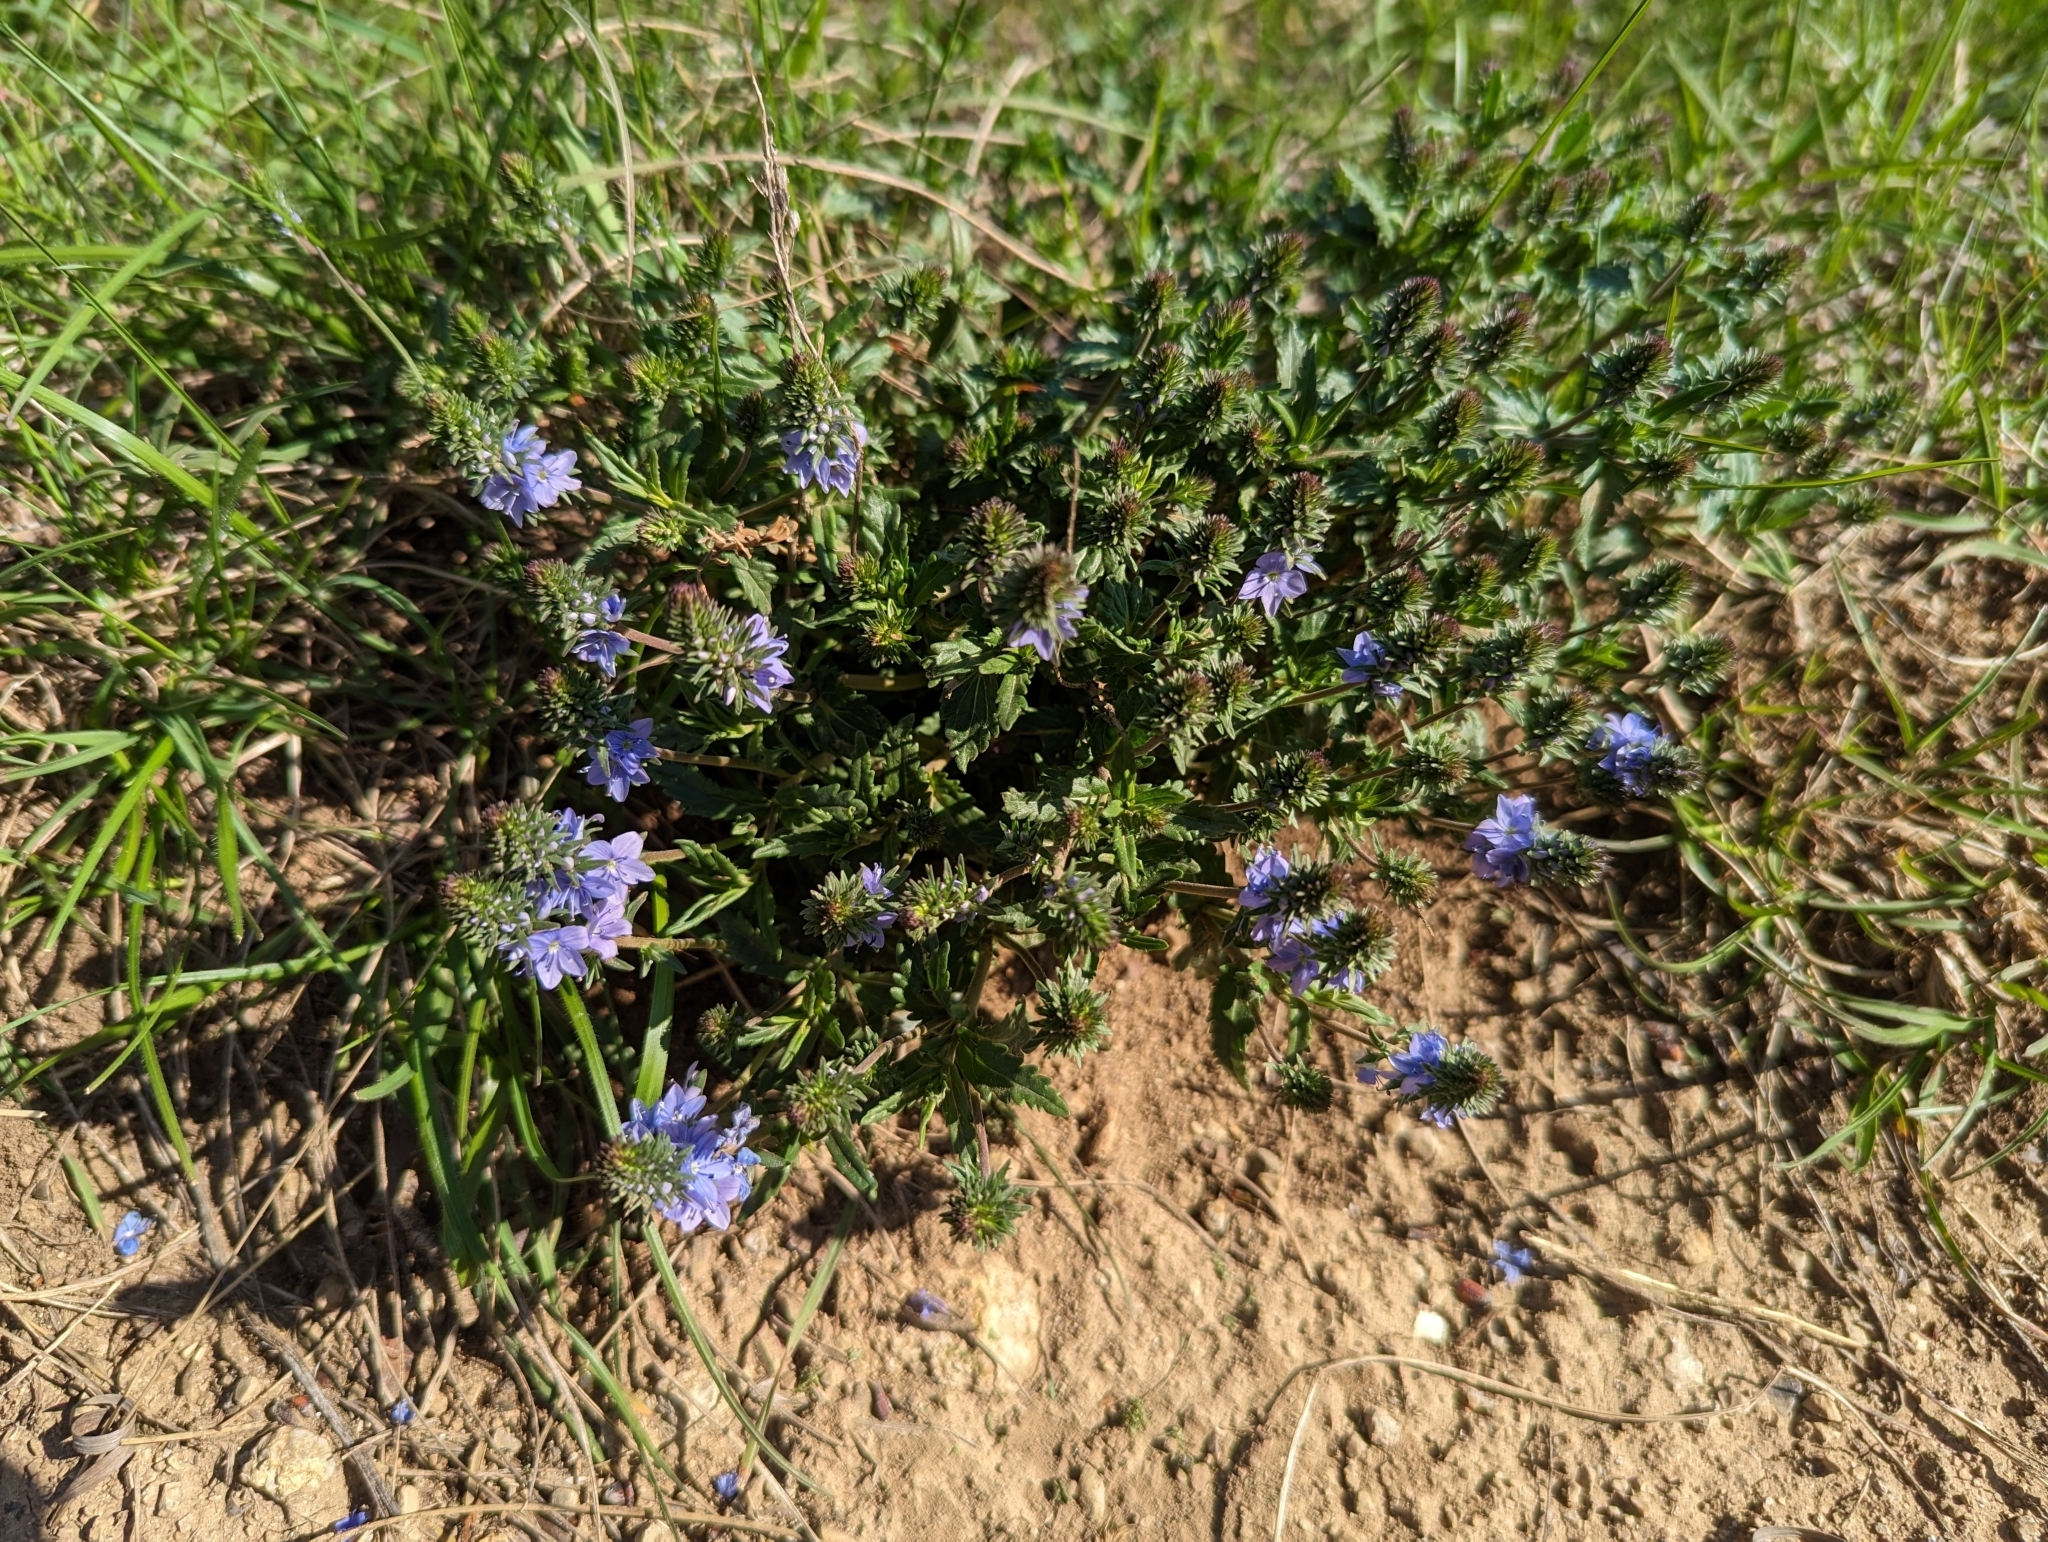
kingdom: Plantae
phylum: Tracheophyta
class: Magnoliopsida
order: Lamiales
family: Plantaginaceae
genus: Veronica
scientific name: Veronica prostrata
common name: Prostrate speedwell
